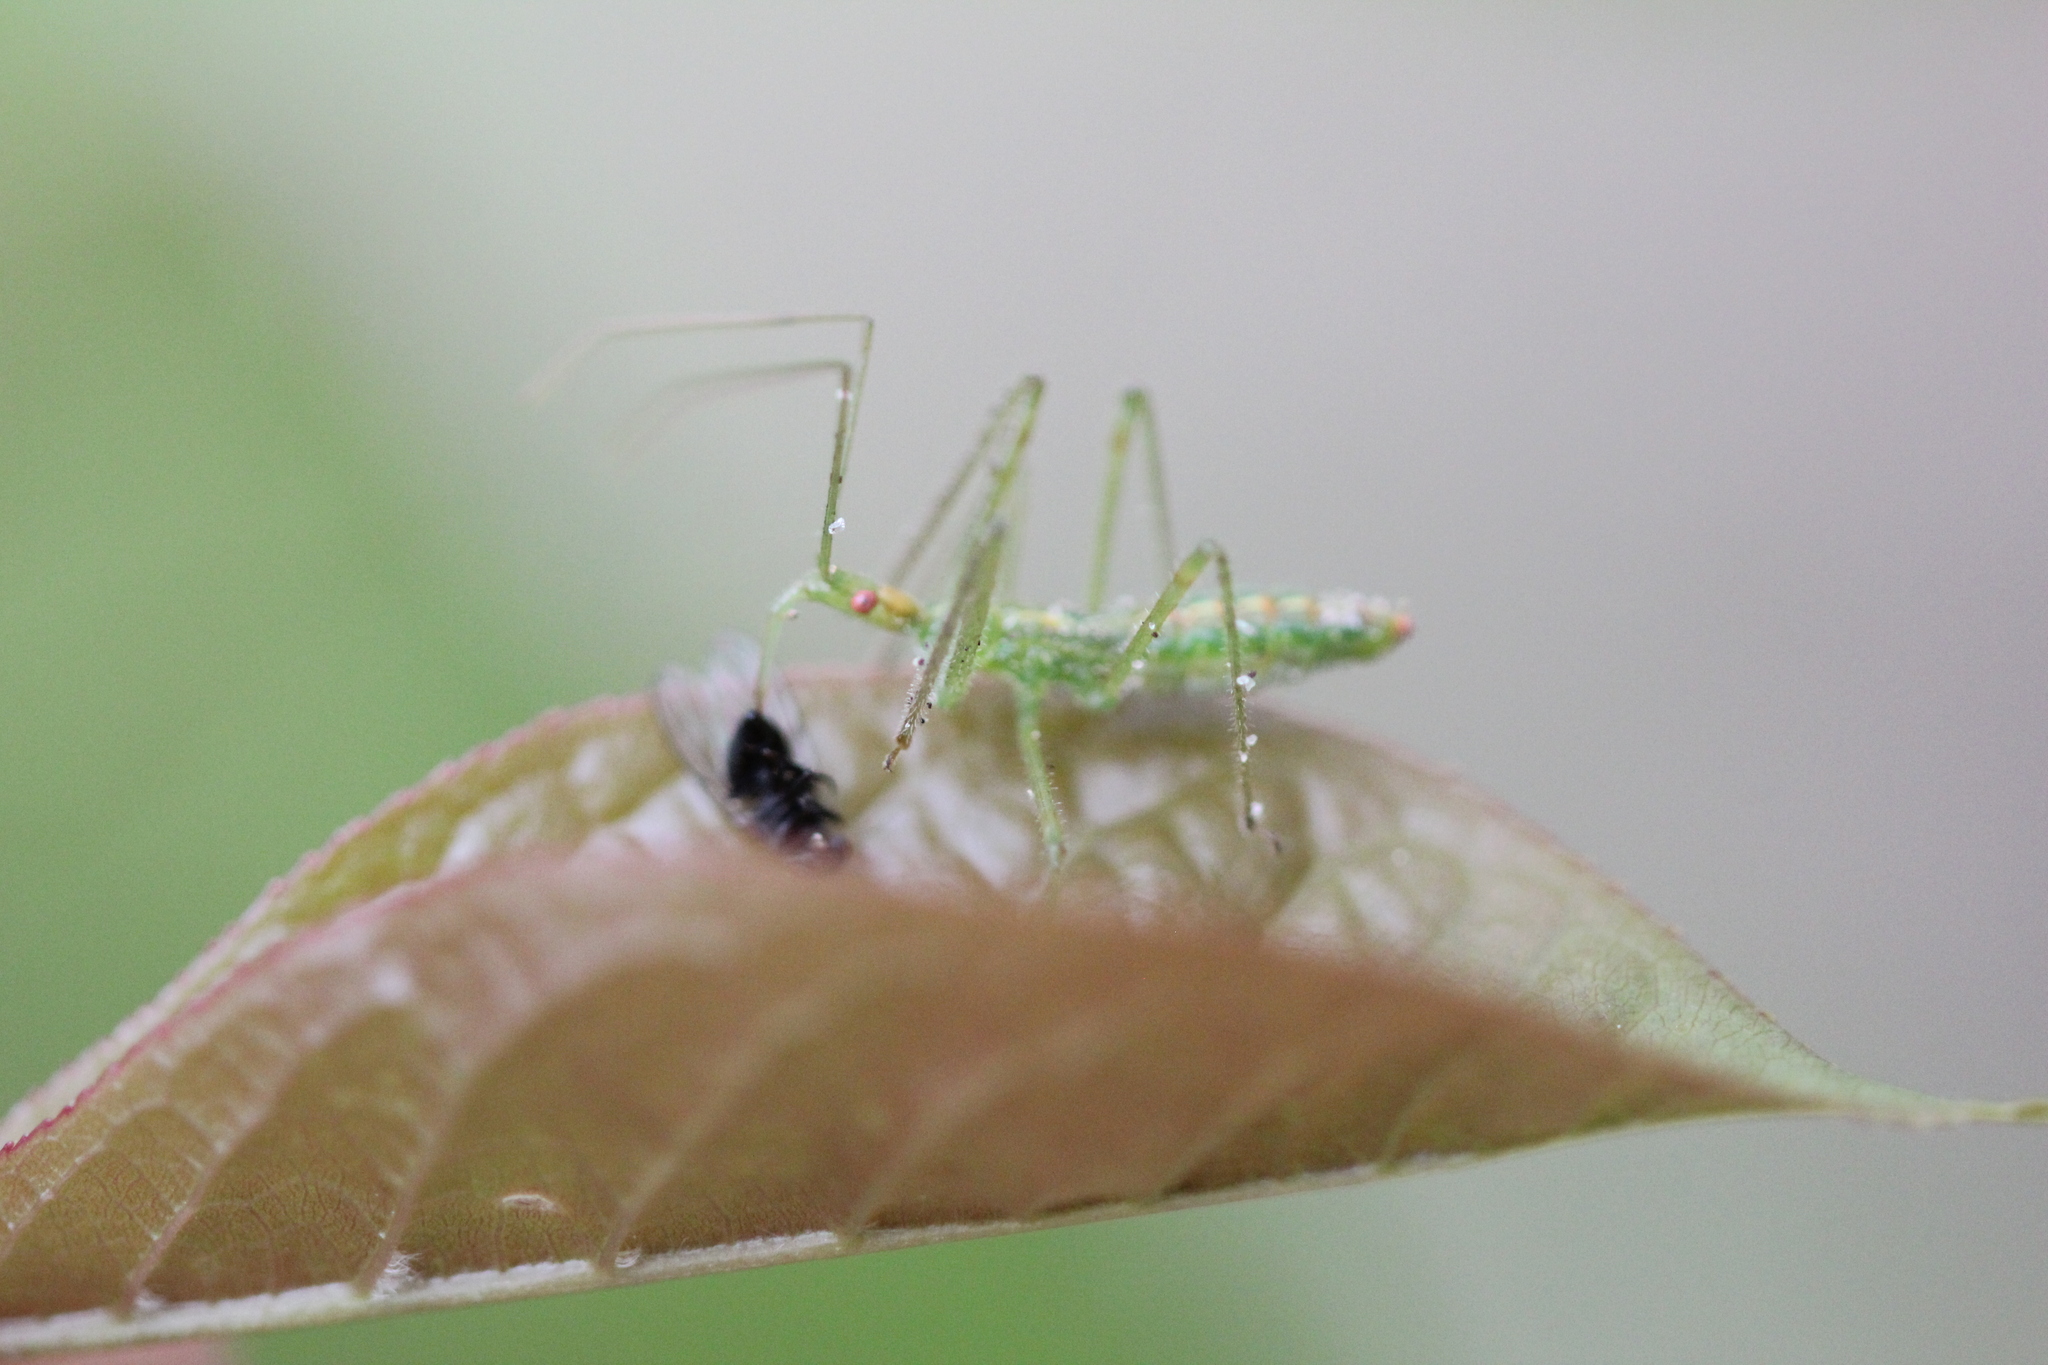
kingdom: Animalia
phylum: Arthropoda
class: Insecta
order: Hemiptera
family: Reduviidae
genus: Zelus
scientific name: Zelus luridus
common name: Pale green assassin bug
